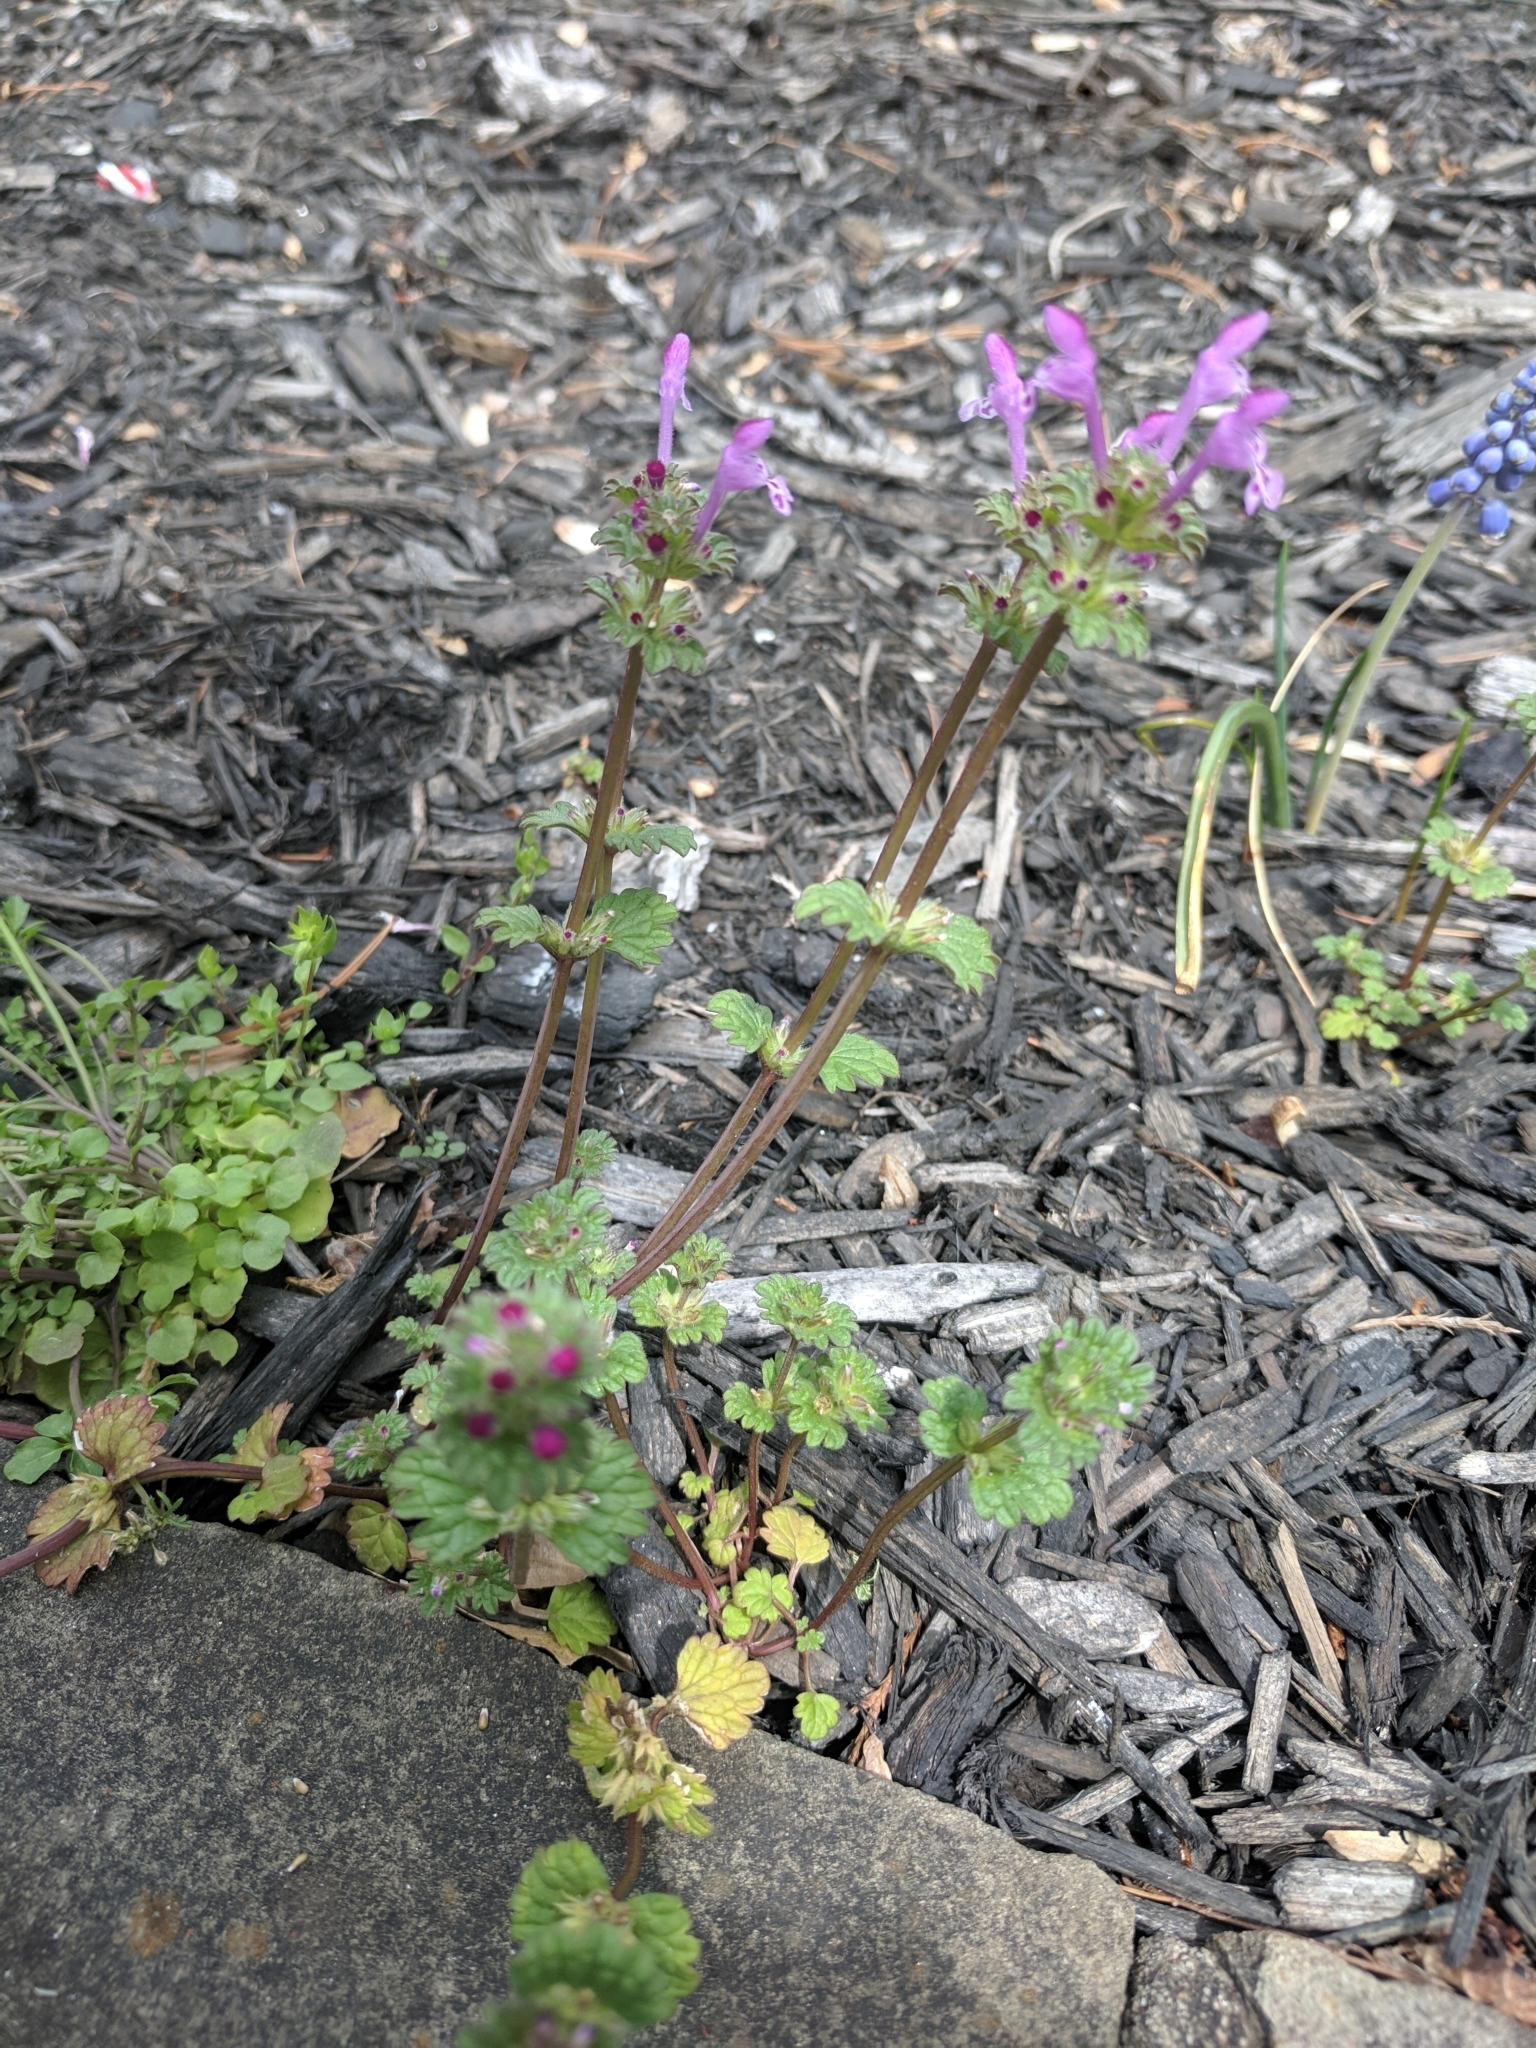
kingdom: Plantae
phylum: Tracheophyta
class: Magnoliopsida
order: Lamiales
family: Lamiaceae
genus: Lamium
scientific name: Lamium amplexicaule
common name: Henbit dead-nettle
